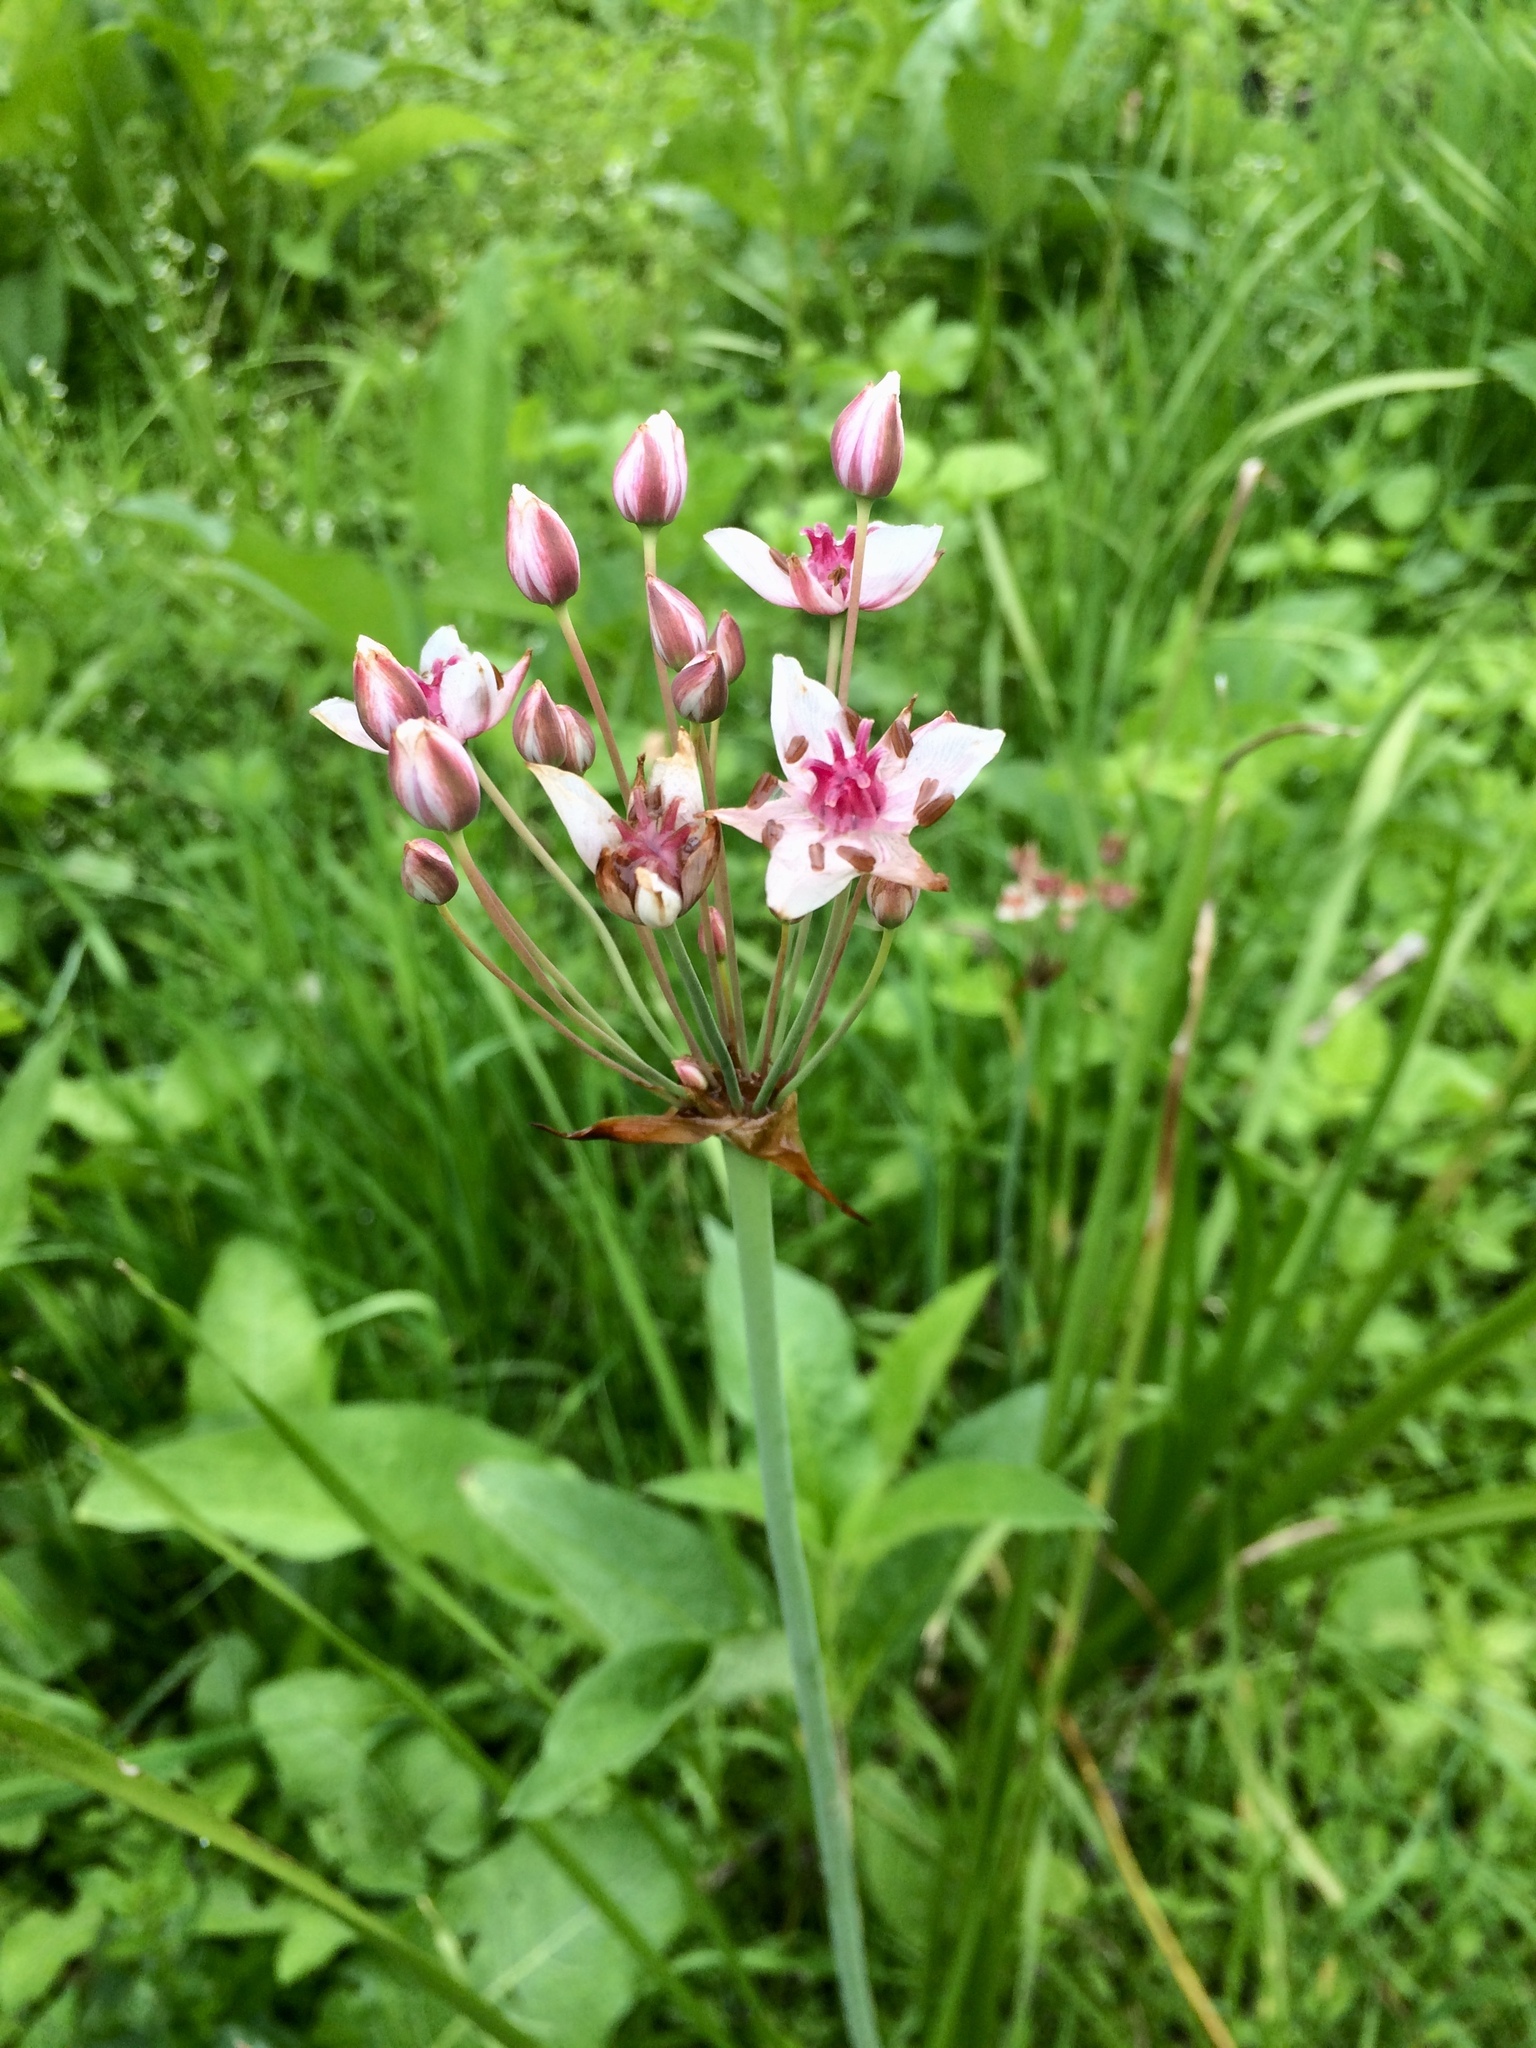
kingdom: Plantae
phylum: Tracheophyta
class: Liliopsida
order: Alismatales
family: Butomaceae
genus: Butomus
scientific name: Butomus umbellatus
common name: Flowering-rush
